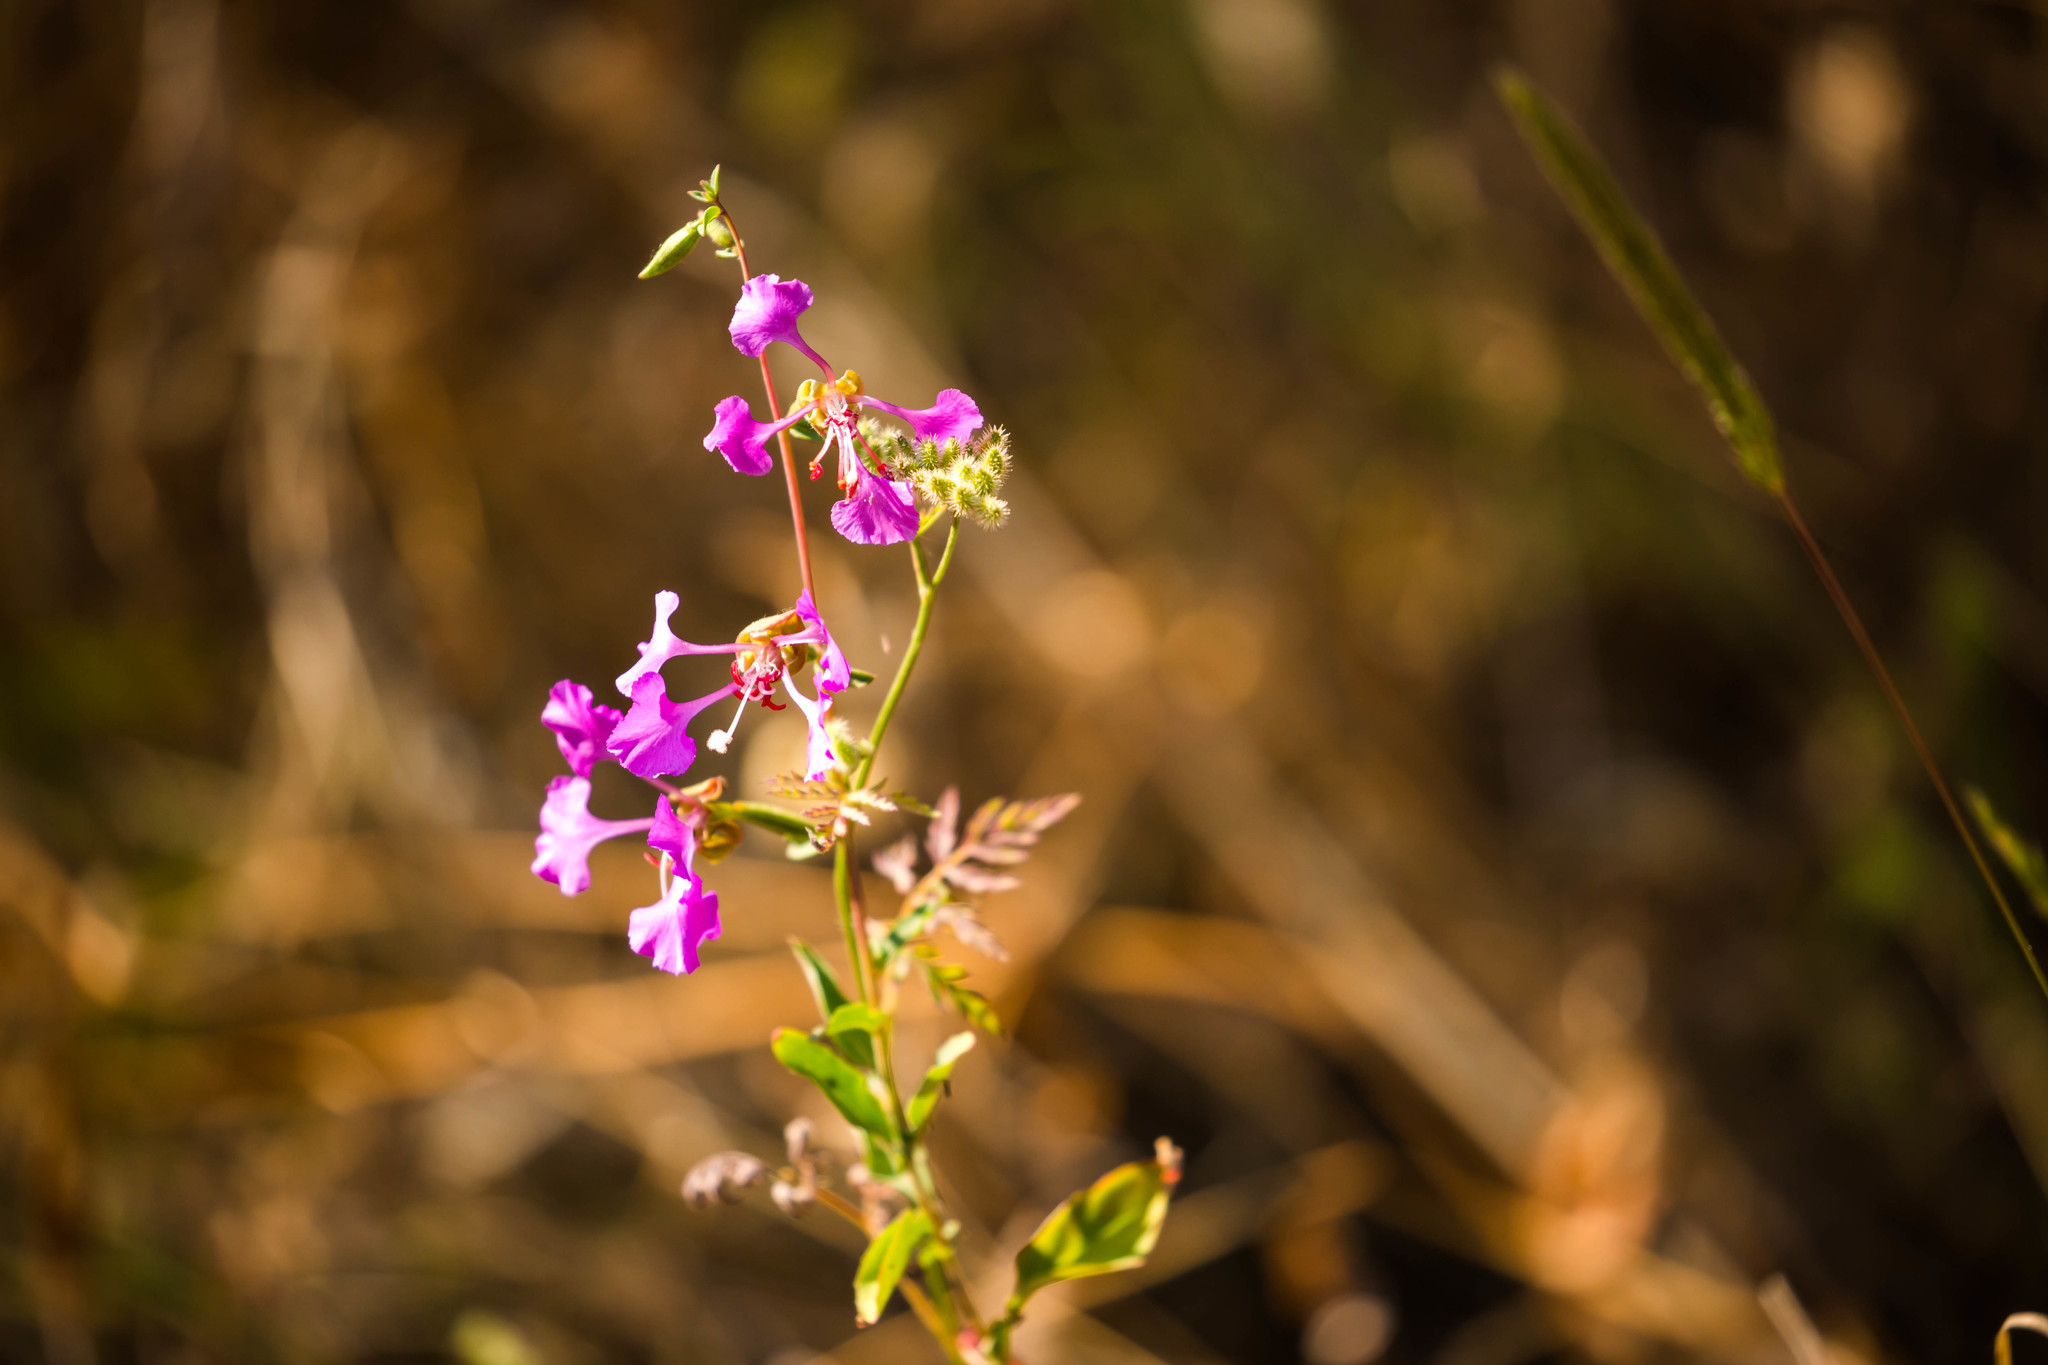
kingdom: Plantae
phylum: Tracheophyta
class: Magnoliopsida
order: Myrtales
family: Onagraceae
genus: Clarkia
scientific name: Clarkia unguiculata
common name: Clarkia
